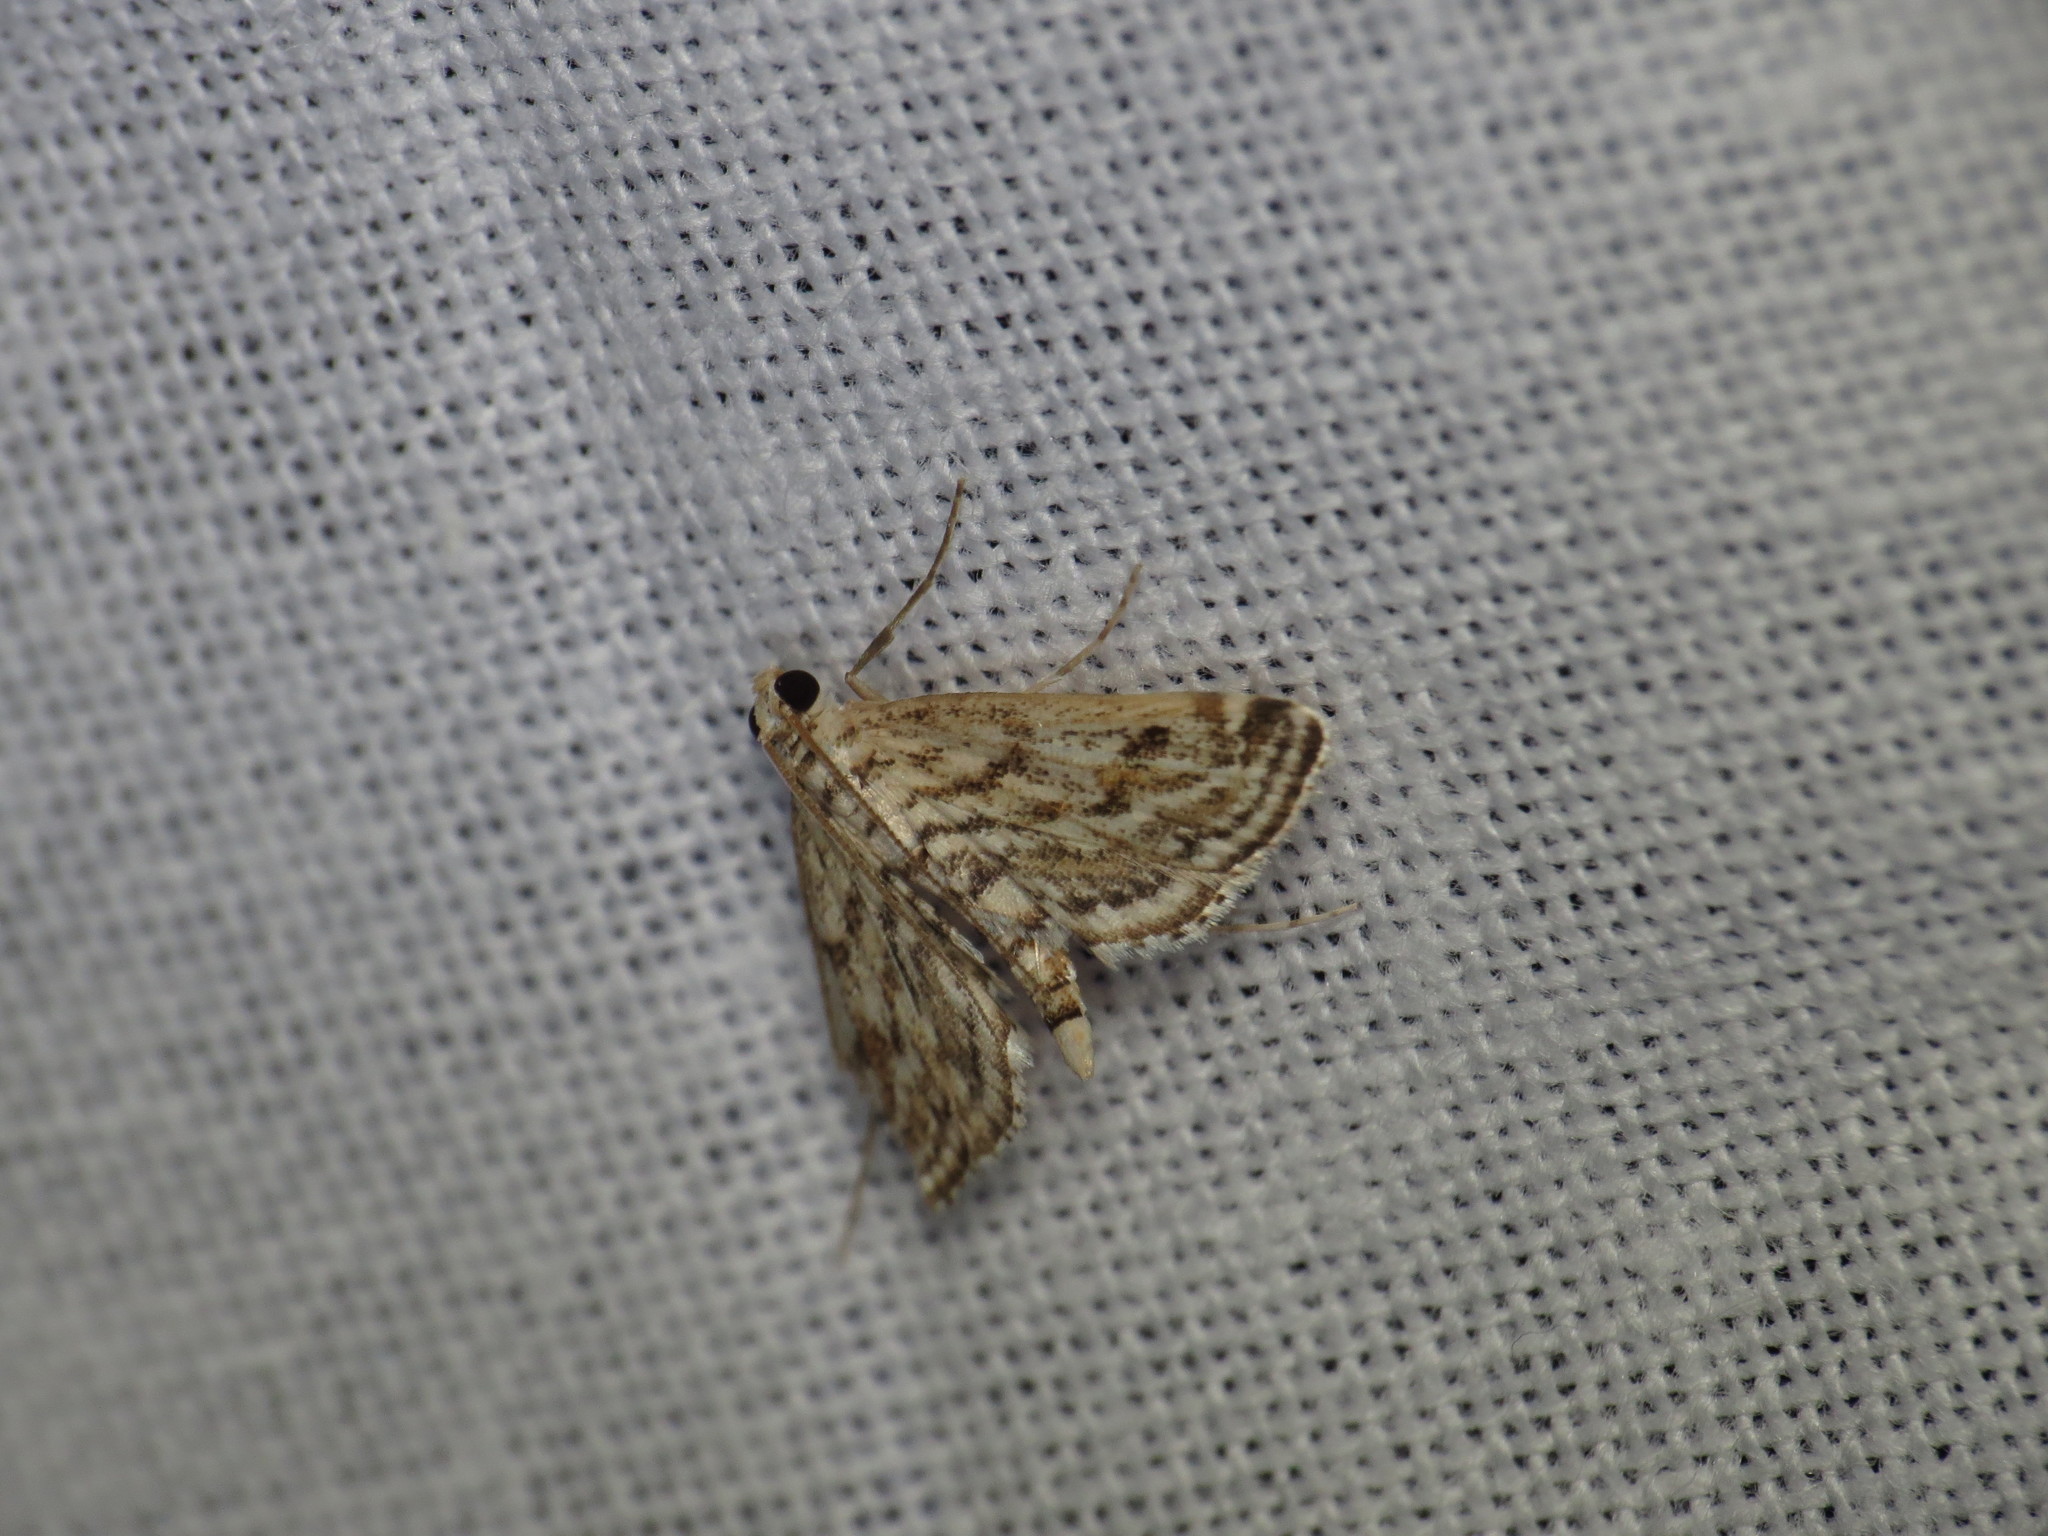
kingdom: Animalia
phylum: Arthropoda
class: Insecta
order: Lepidoptera
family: Crambidae
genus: Parapoynx
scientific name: Parapoynx allionealis
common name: Bladderwort casemaker
